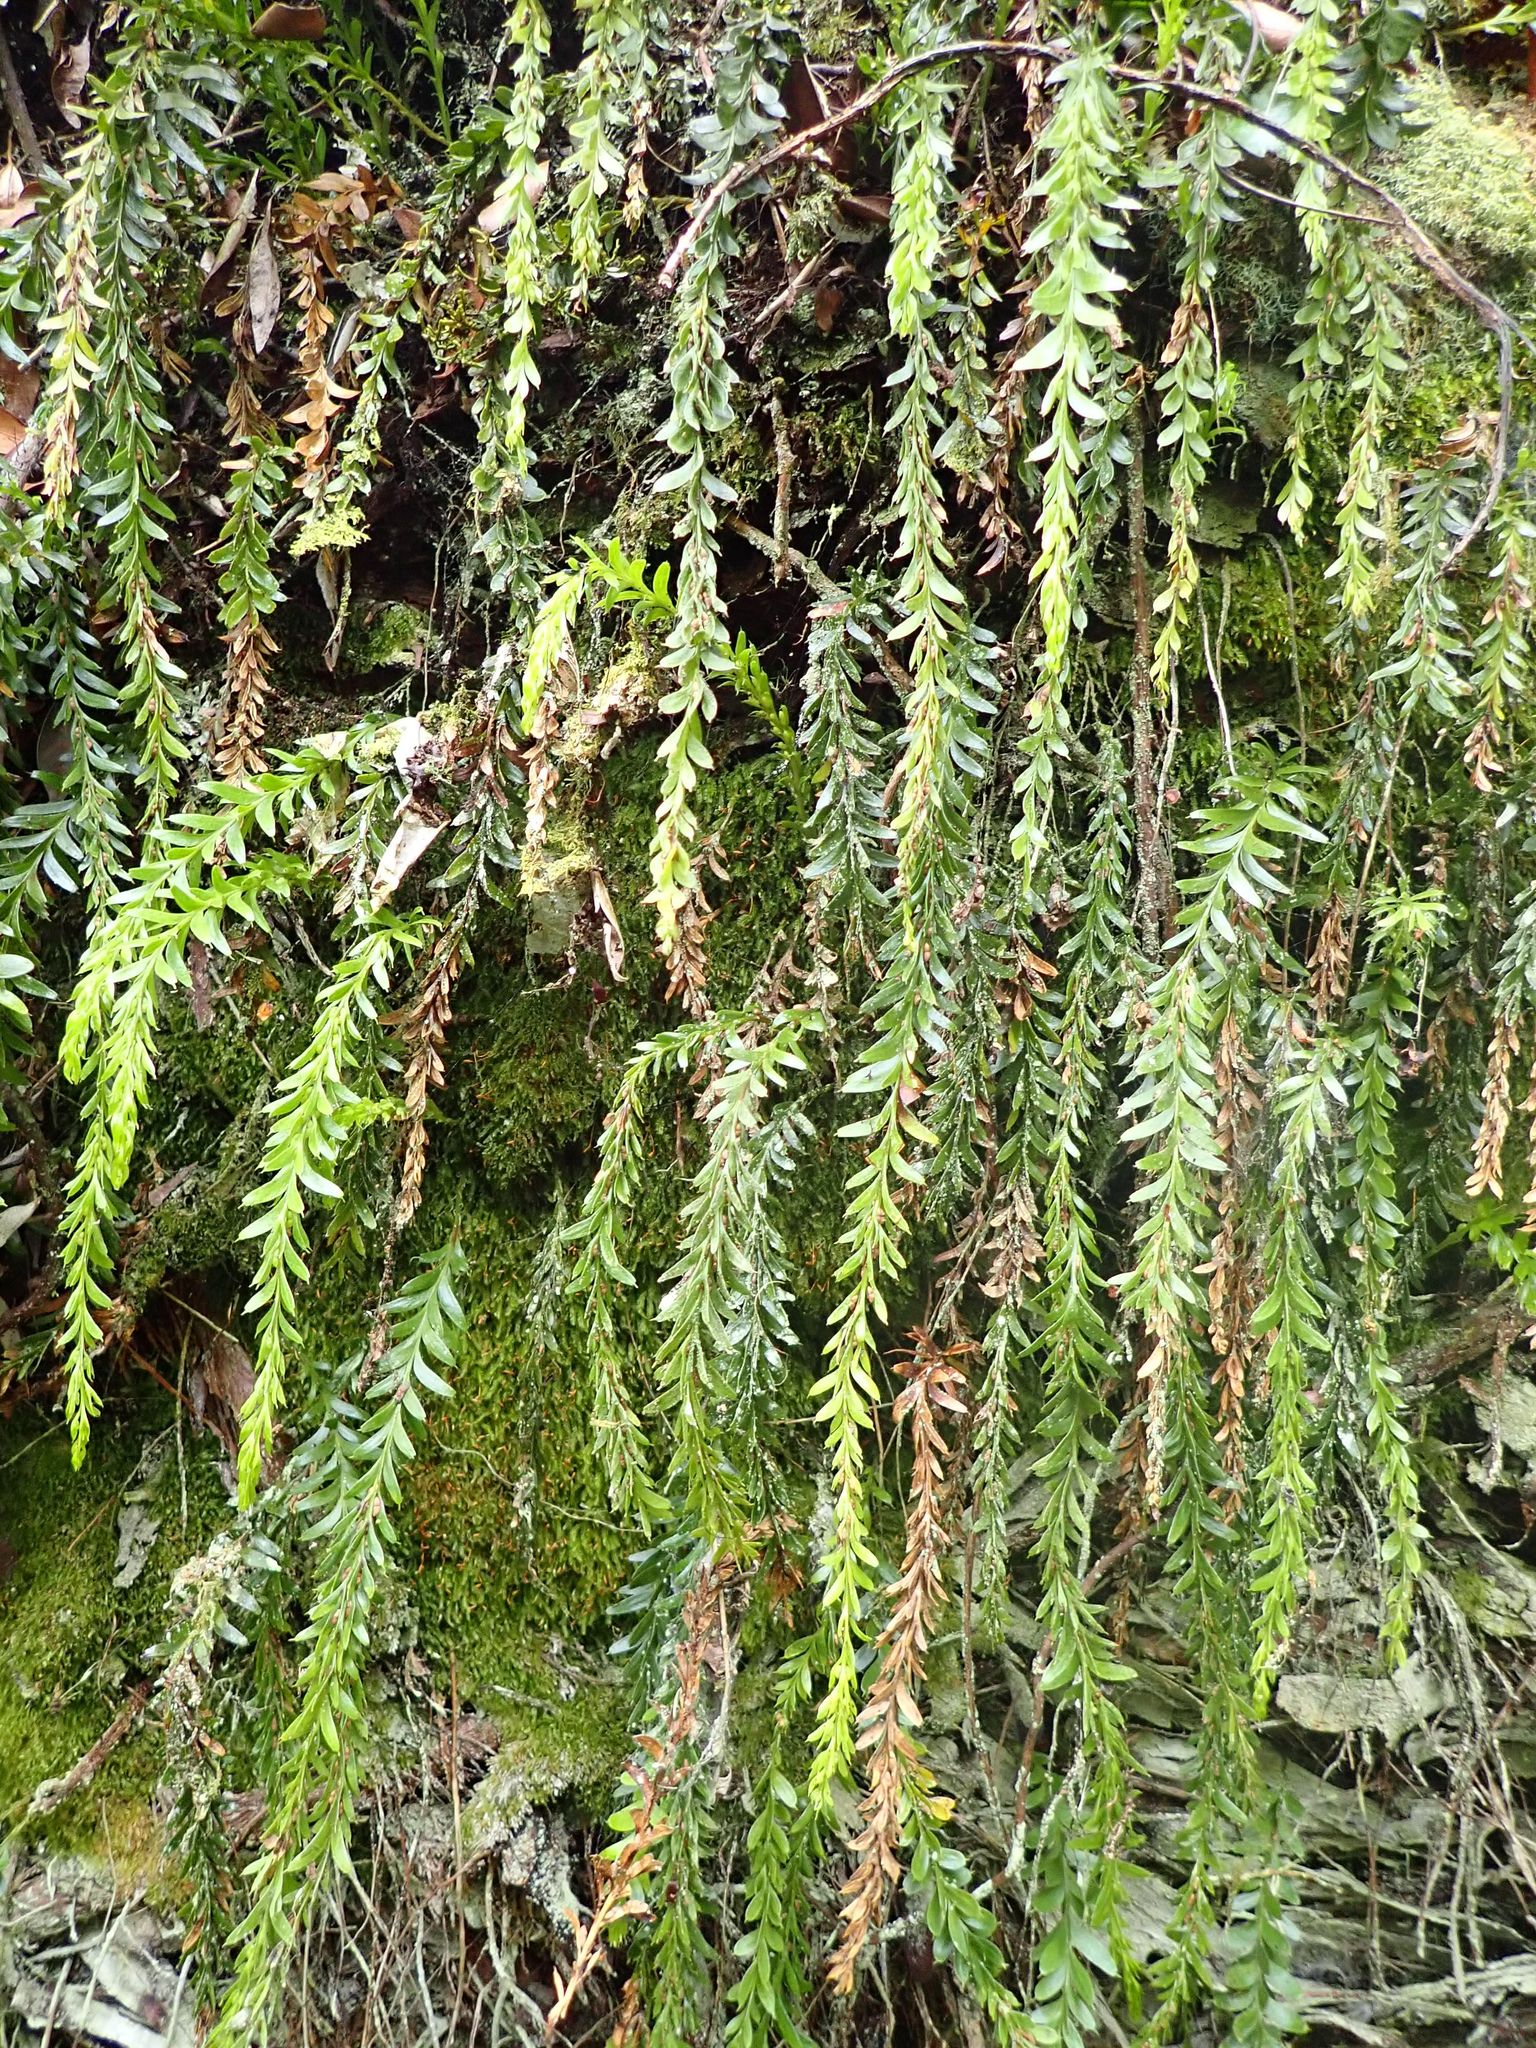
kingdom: Plantae
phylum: Tracheophyta
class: Polypodiopsida
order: Psilotales
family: Psilotaceae
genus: Tmesipteris
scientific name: Tmesipteris tannensis
